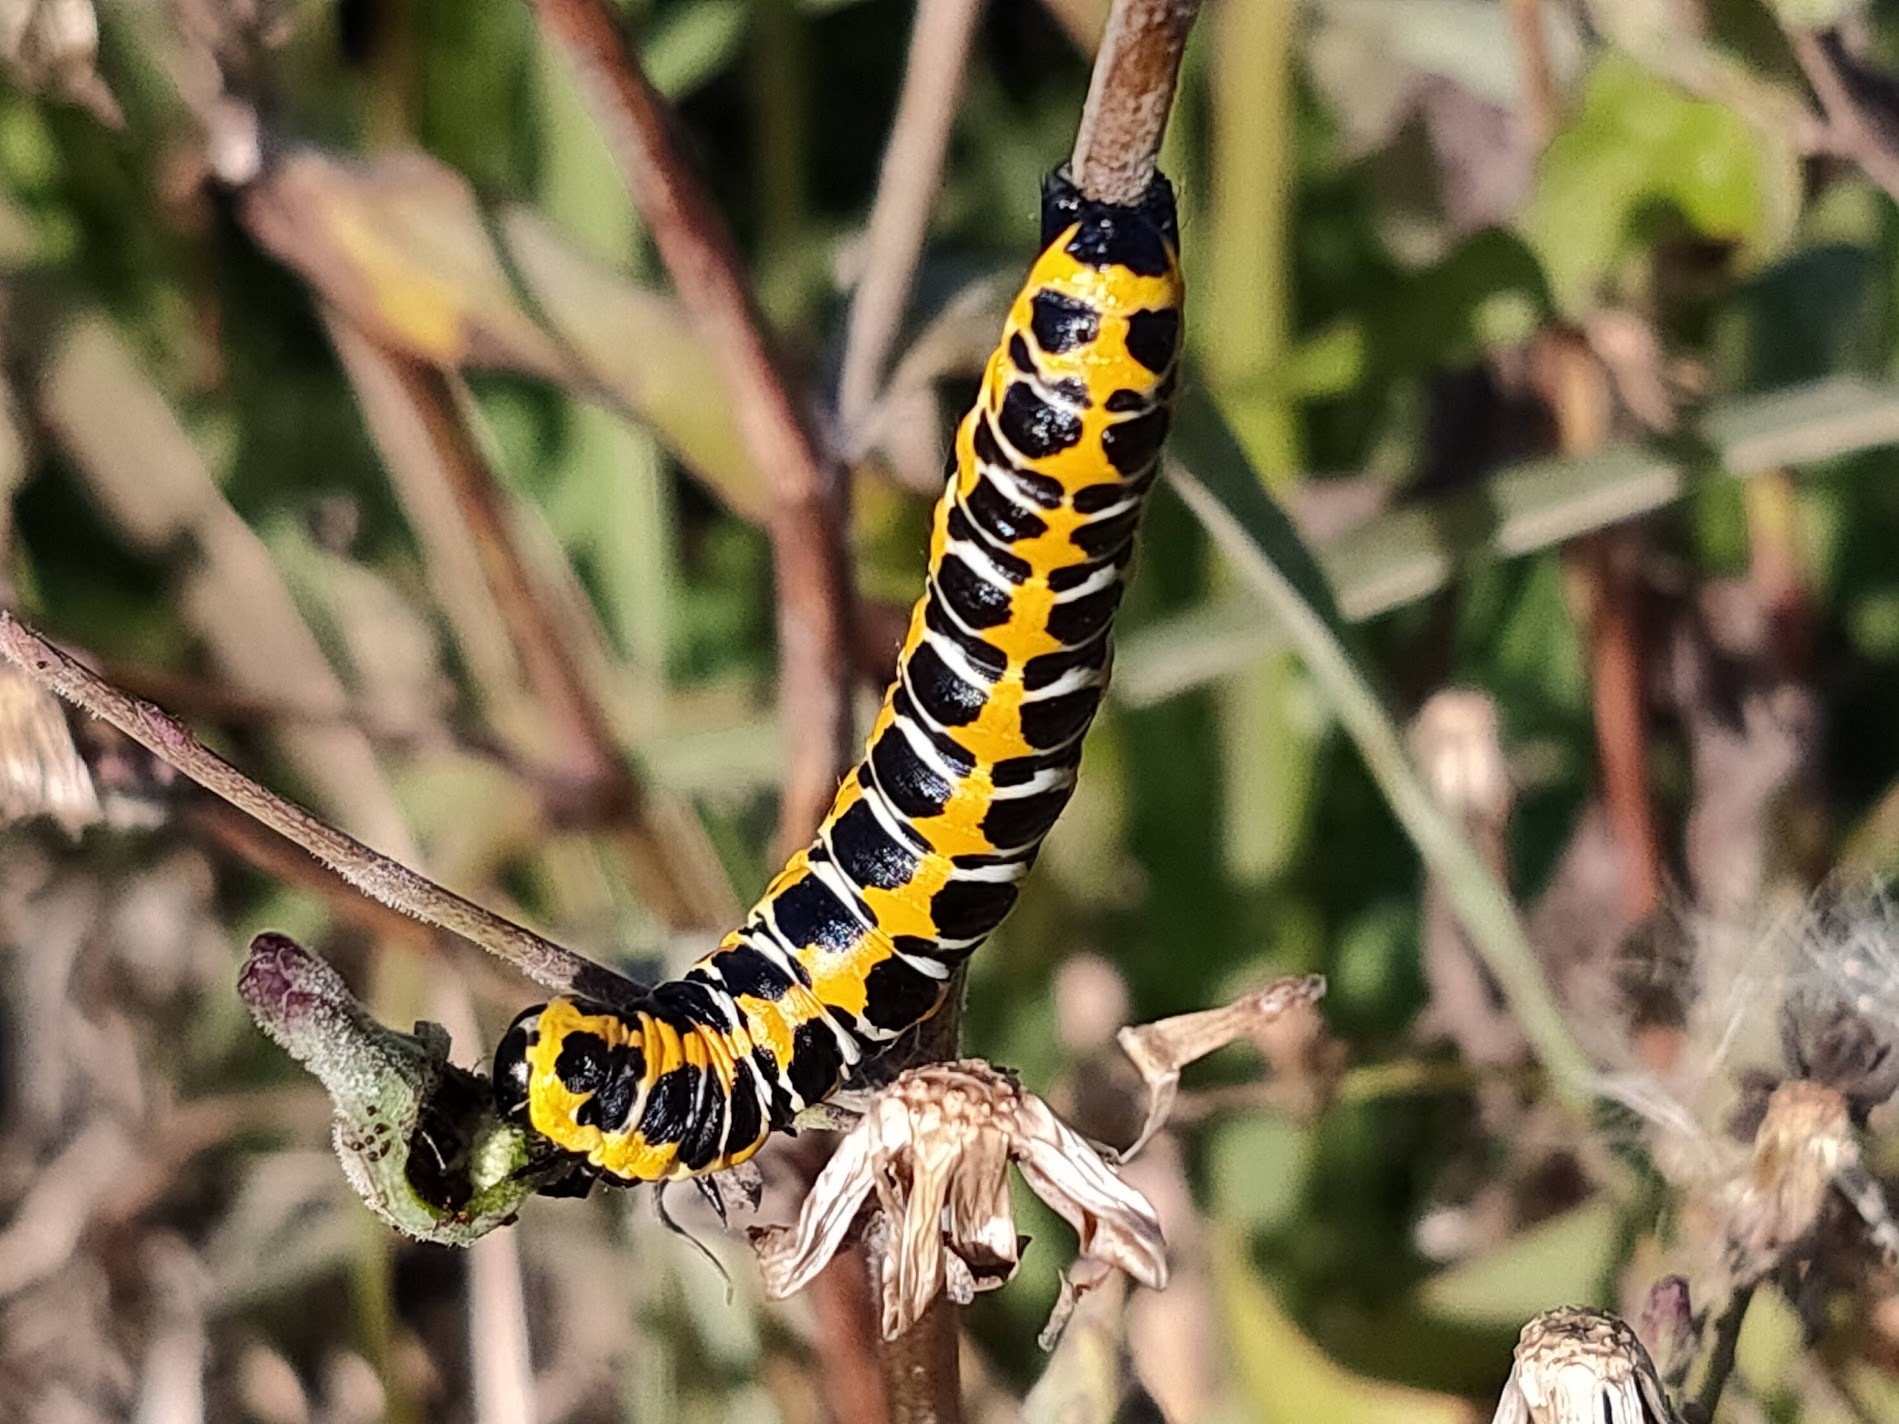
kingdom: Animalia
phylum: Arthropoda
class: Insecta
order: Lepidoptera
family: Noctuidae
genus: Cucullia
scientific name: Cucullia pustulata
